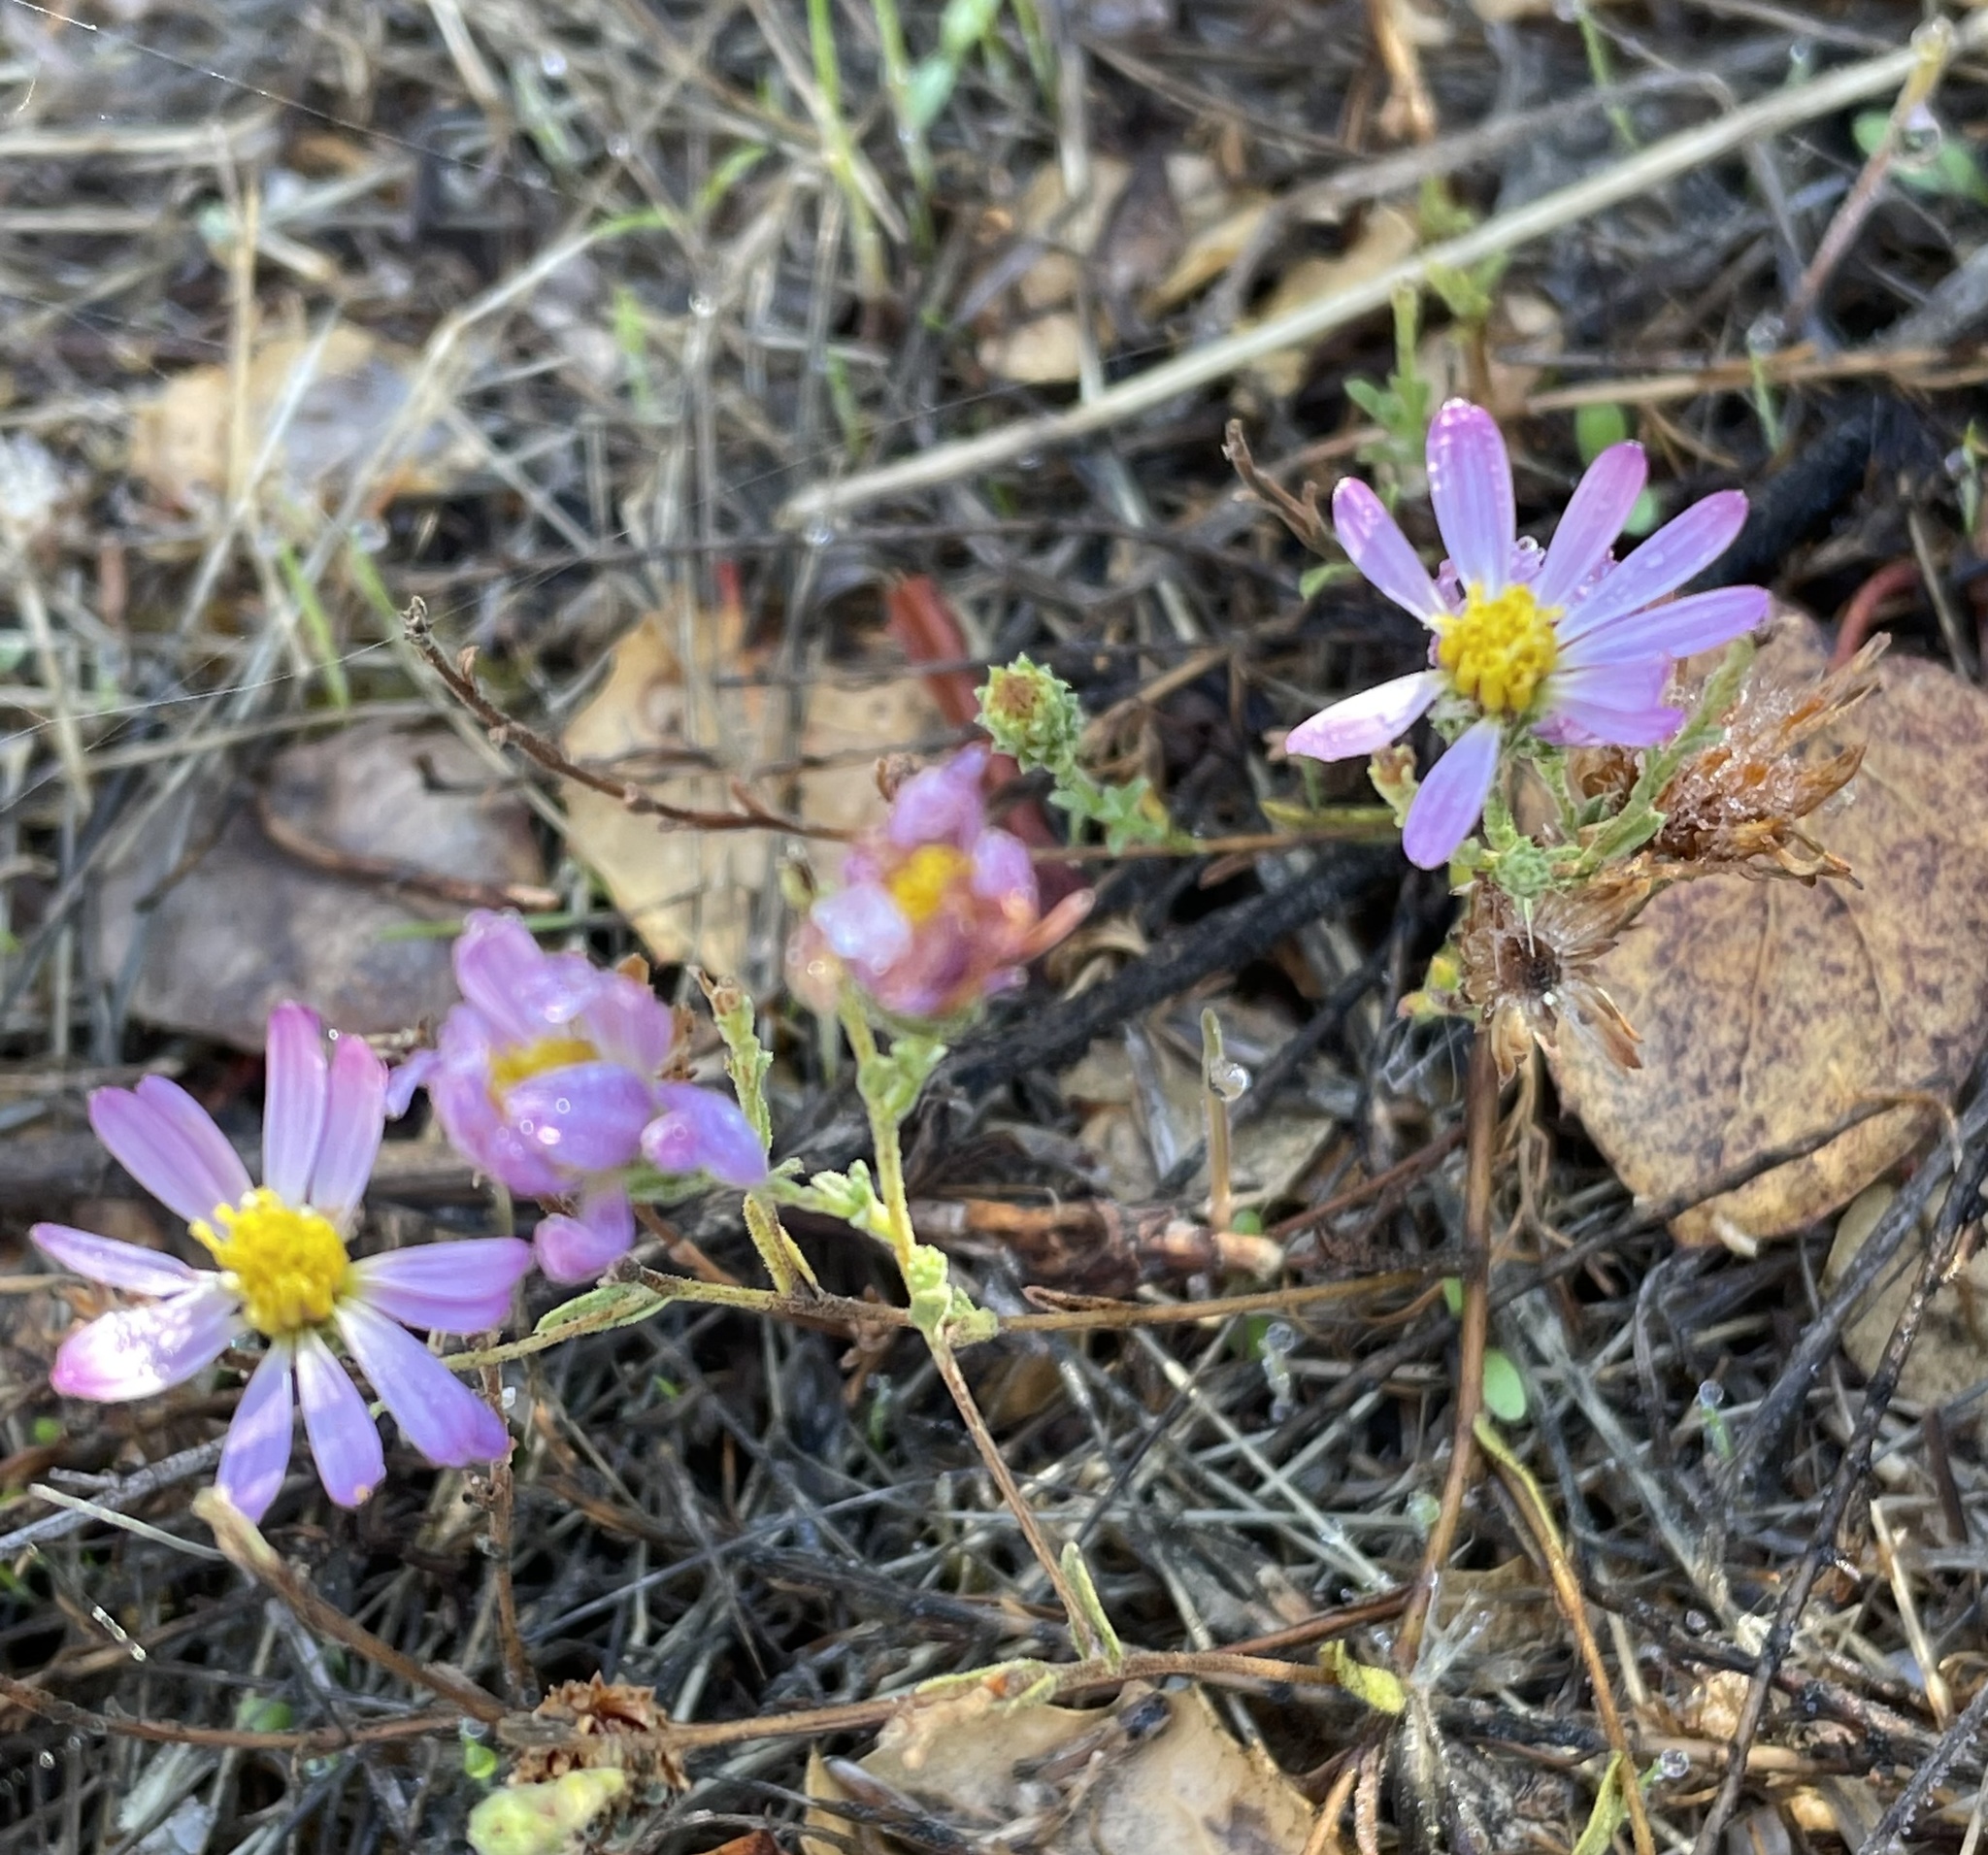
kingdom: Plantae
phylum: Tracheophyta
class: Magnoliopsida
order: Asterales
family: Asteraceae
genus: Corethrogyne
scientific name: Corethrogyne filaginifolia
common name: Sand-aster
